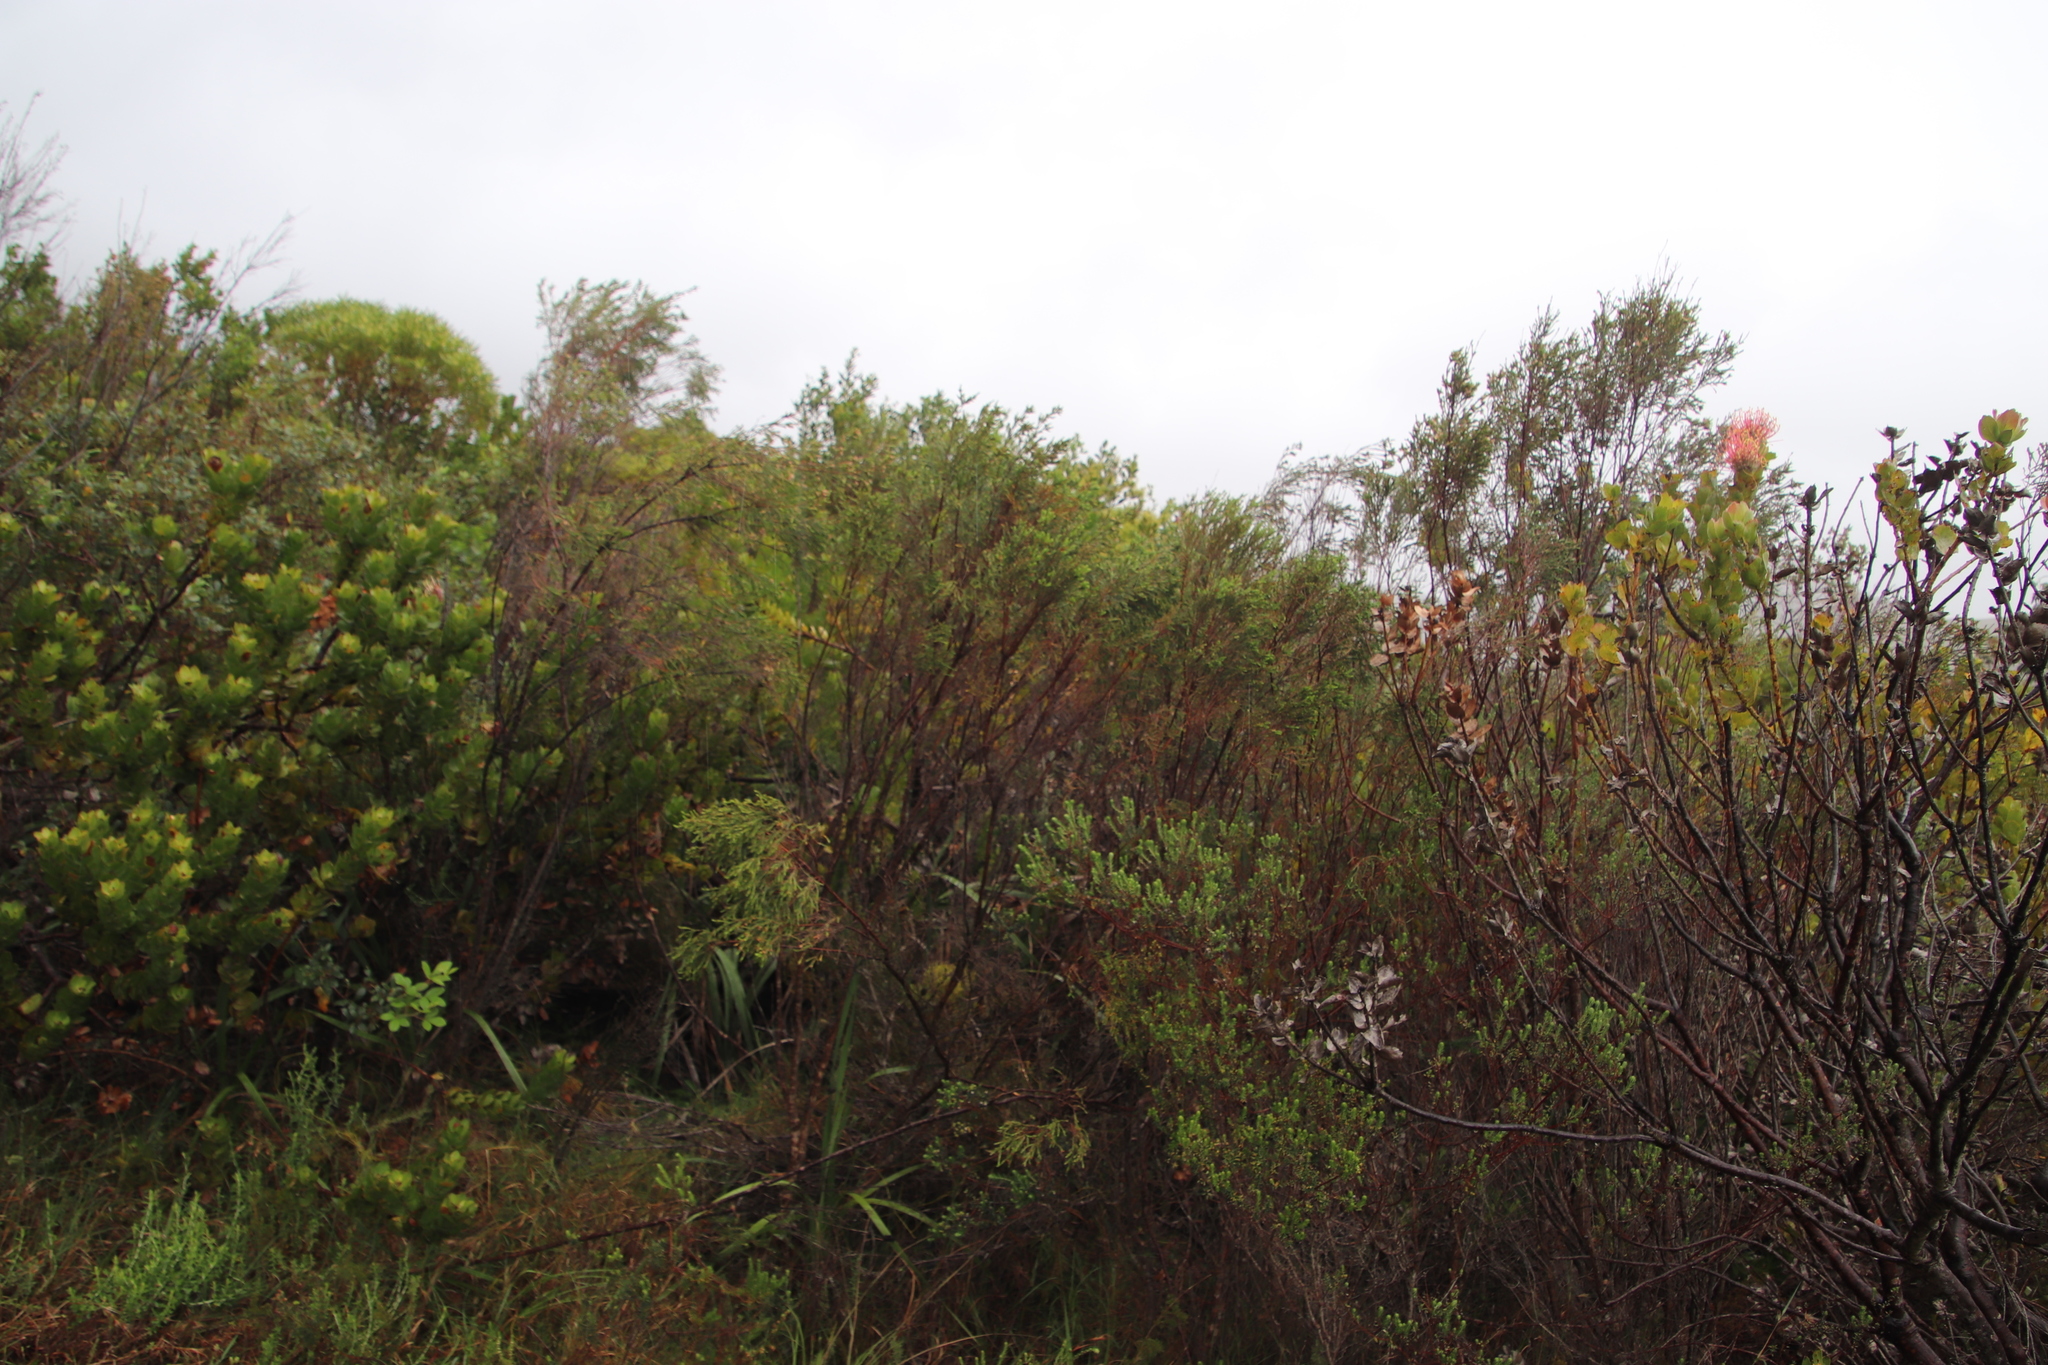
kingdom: Plantae
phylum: Tracheophyta
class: Magnoliopsida
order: Malvales
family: Thymelaeaceae
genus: Passerina
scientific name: Passerina corymbosa
